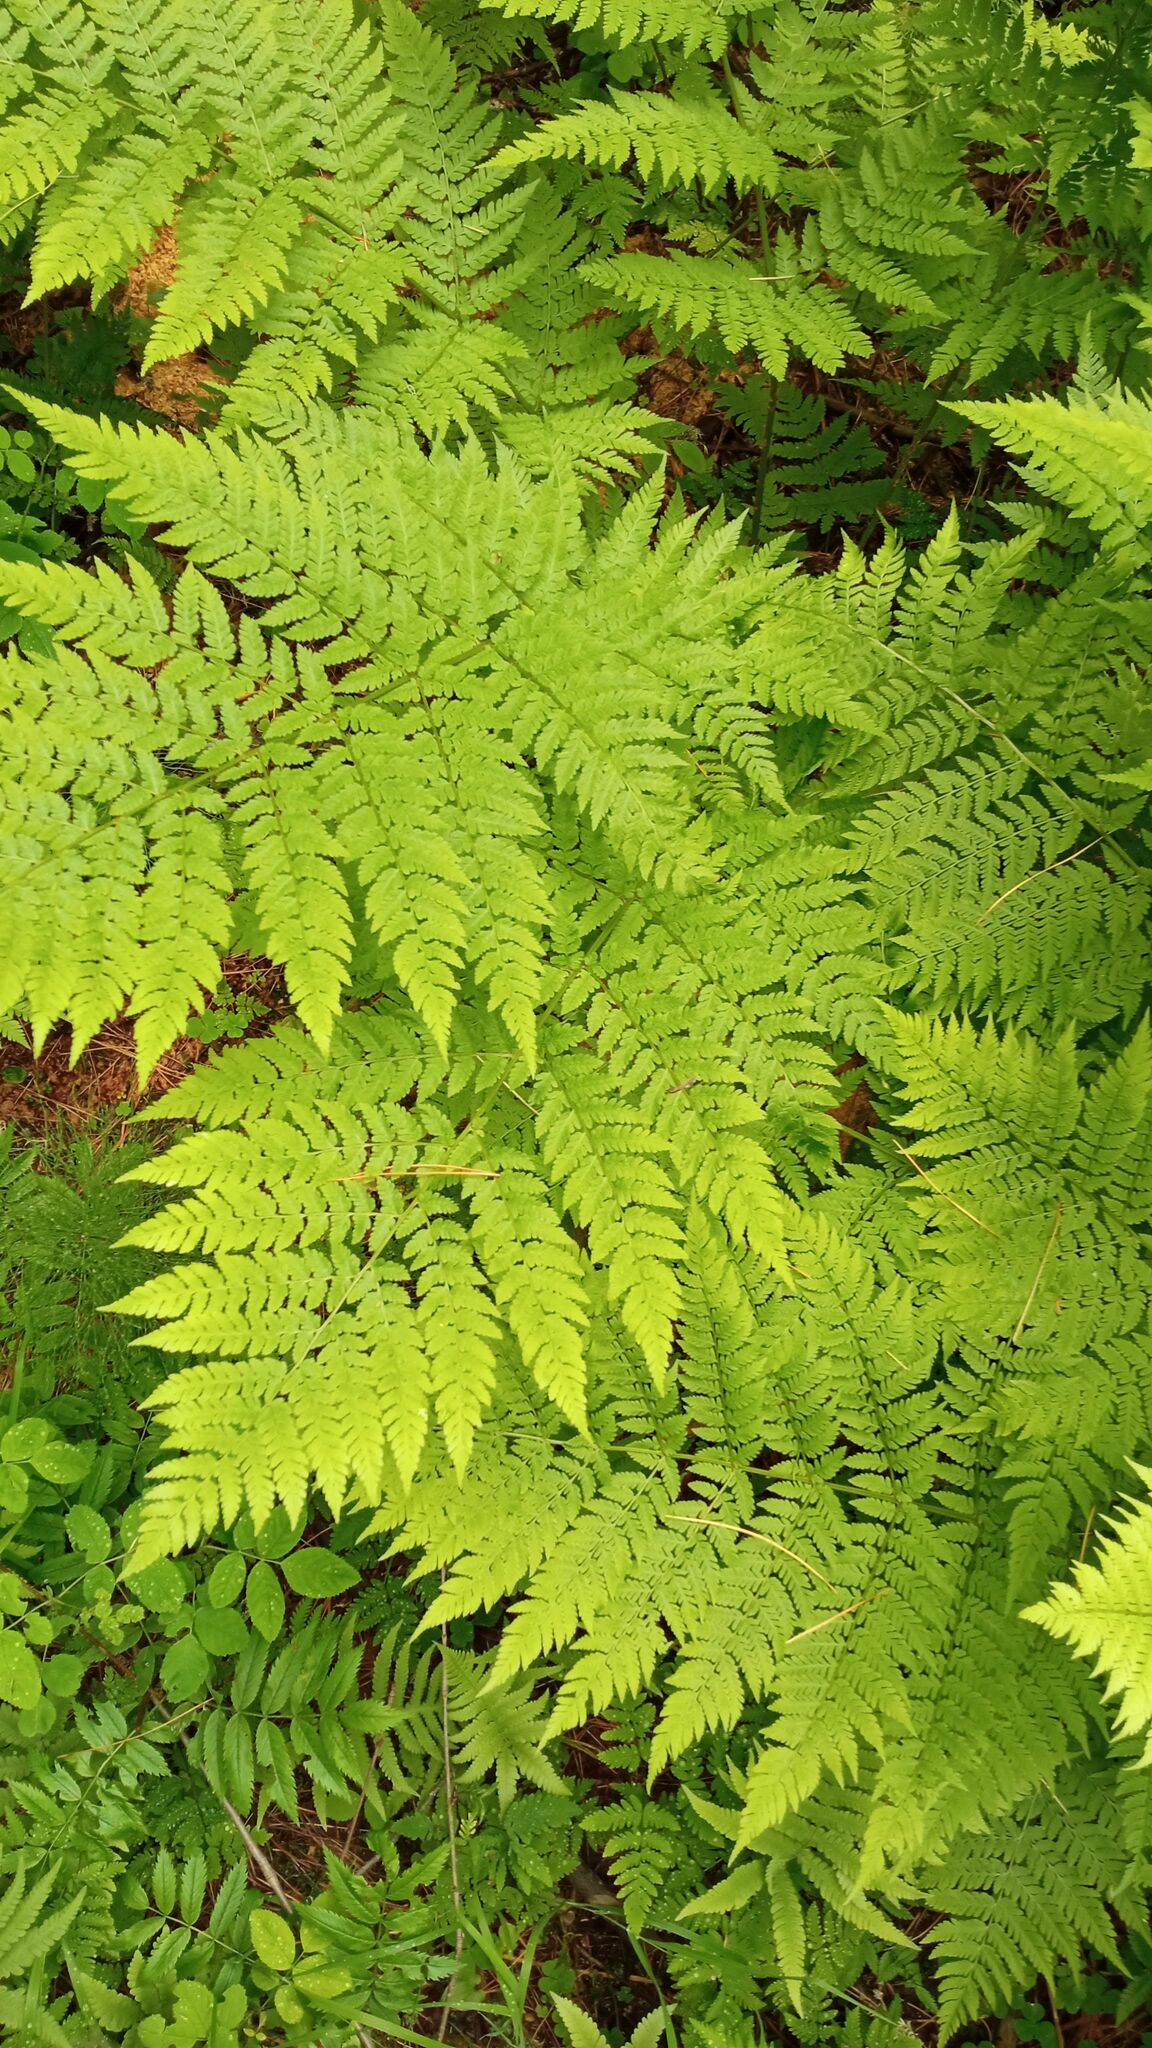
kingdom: Plantae
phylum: Tracheophyta
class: Polypodiopsida
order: Polypodiales
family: Dryopteridaceae
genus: Dryopteris
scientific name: Dryopteris expansa
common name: Northern buckler fern
